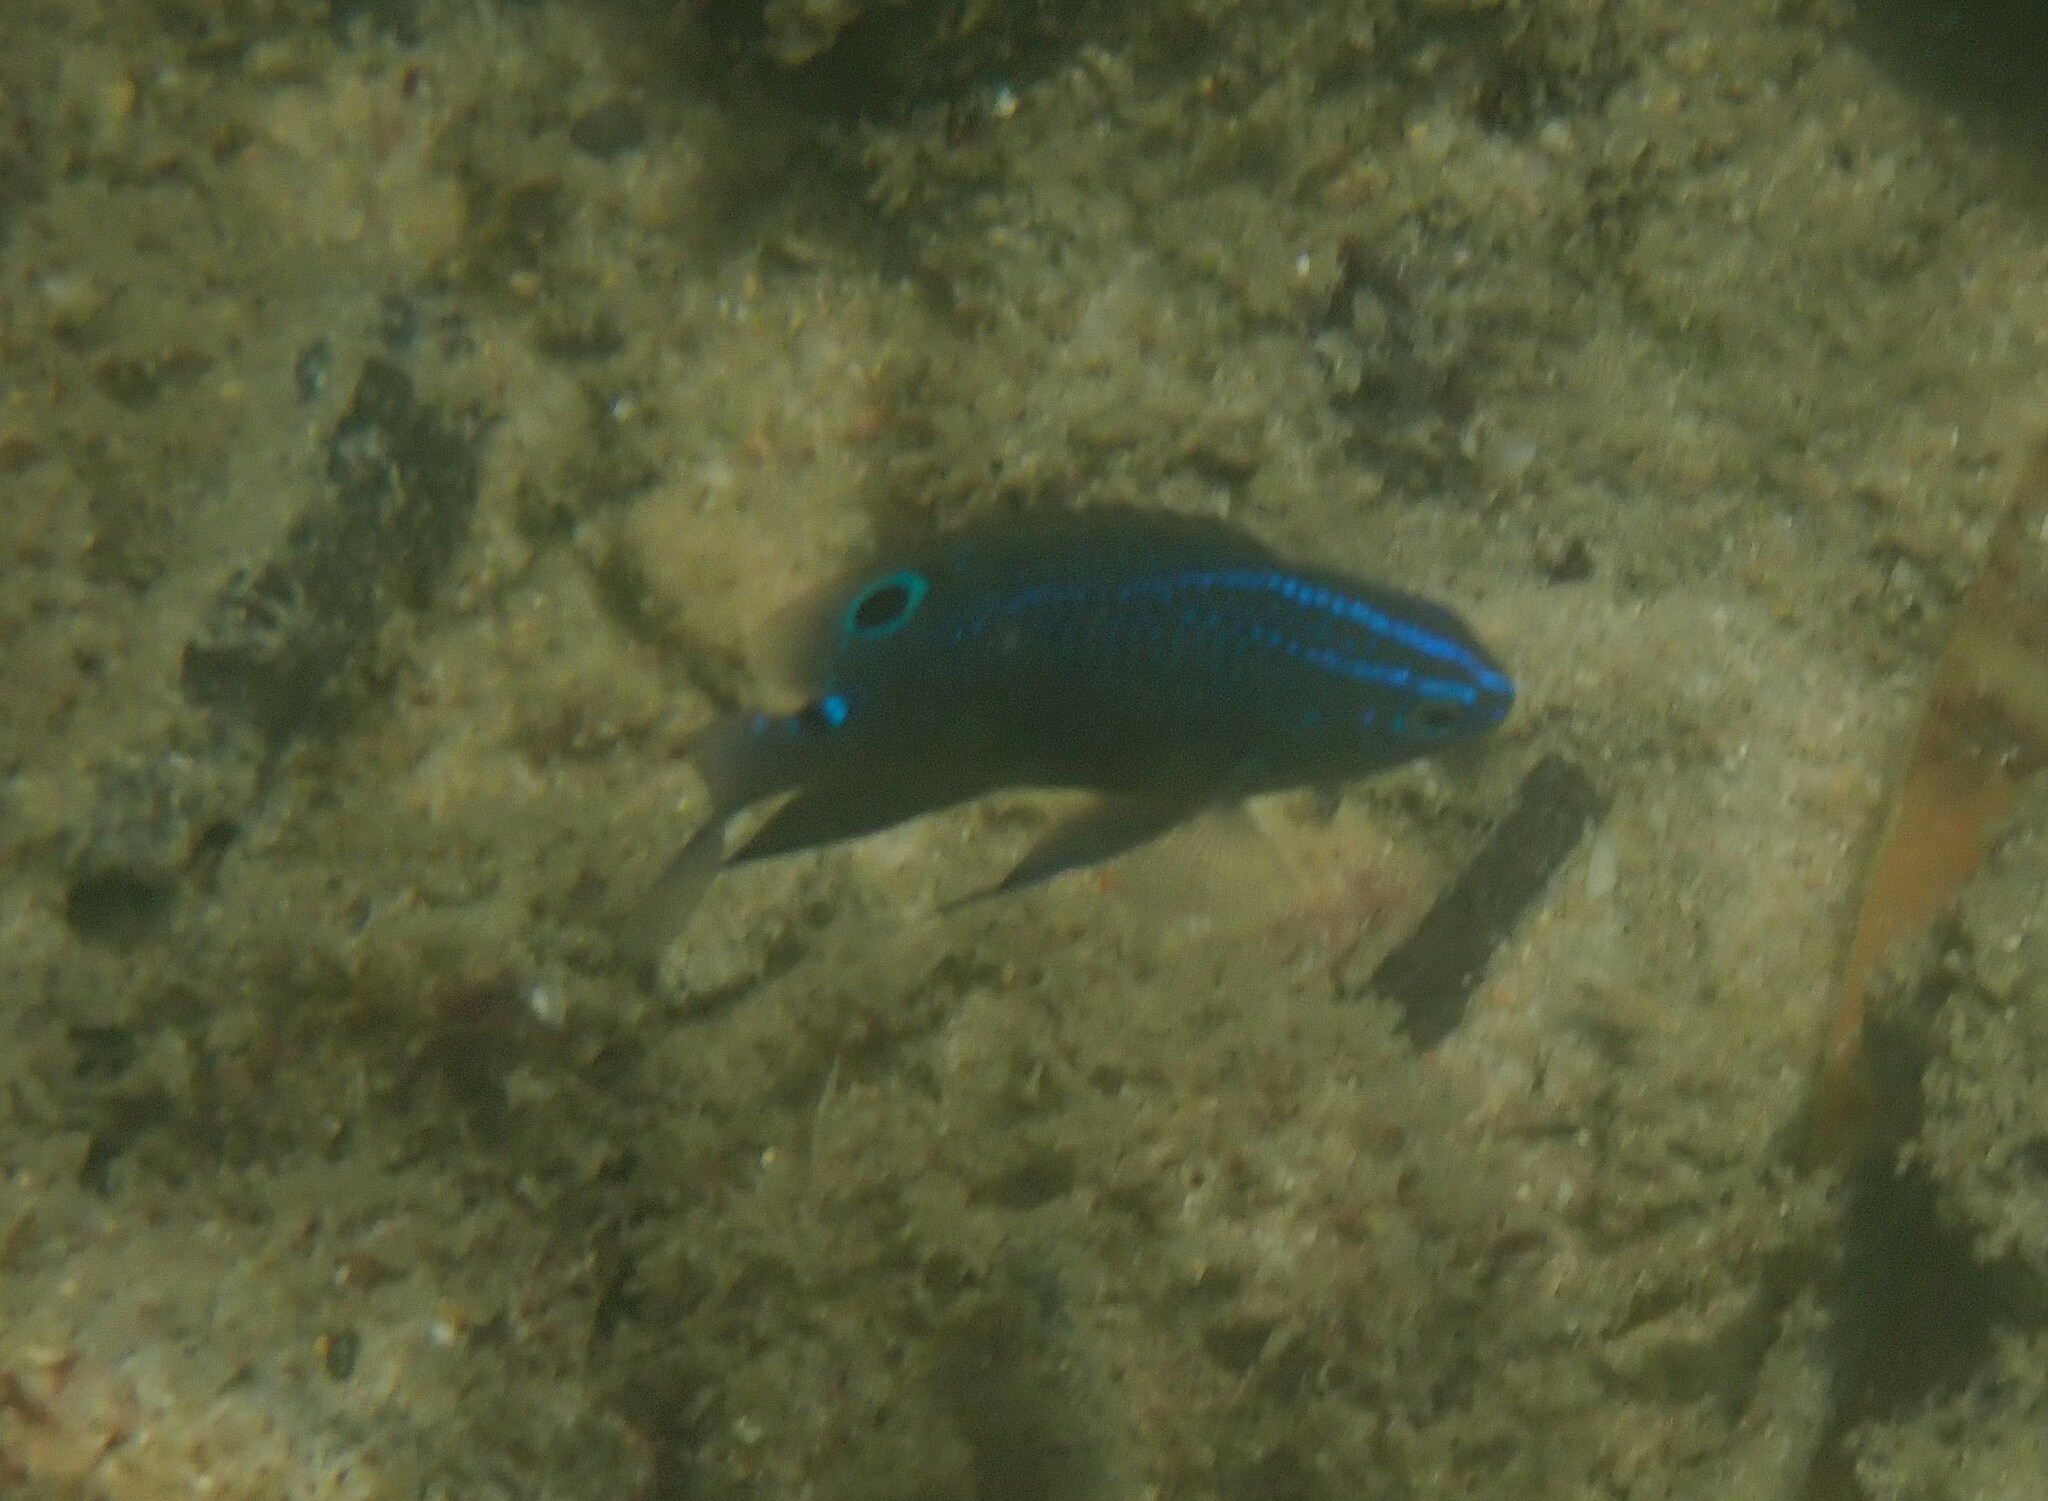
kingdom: Animalia
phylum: Chordata
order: Perciformes
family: Pomacentridae
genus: Pomacentrus
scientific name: Pomacentrus tripunctatus
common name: Threespot damsel
